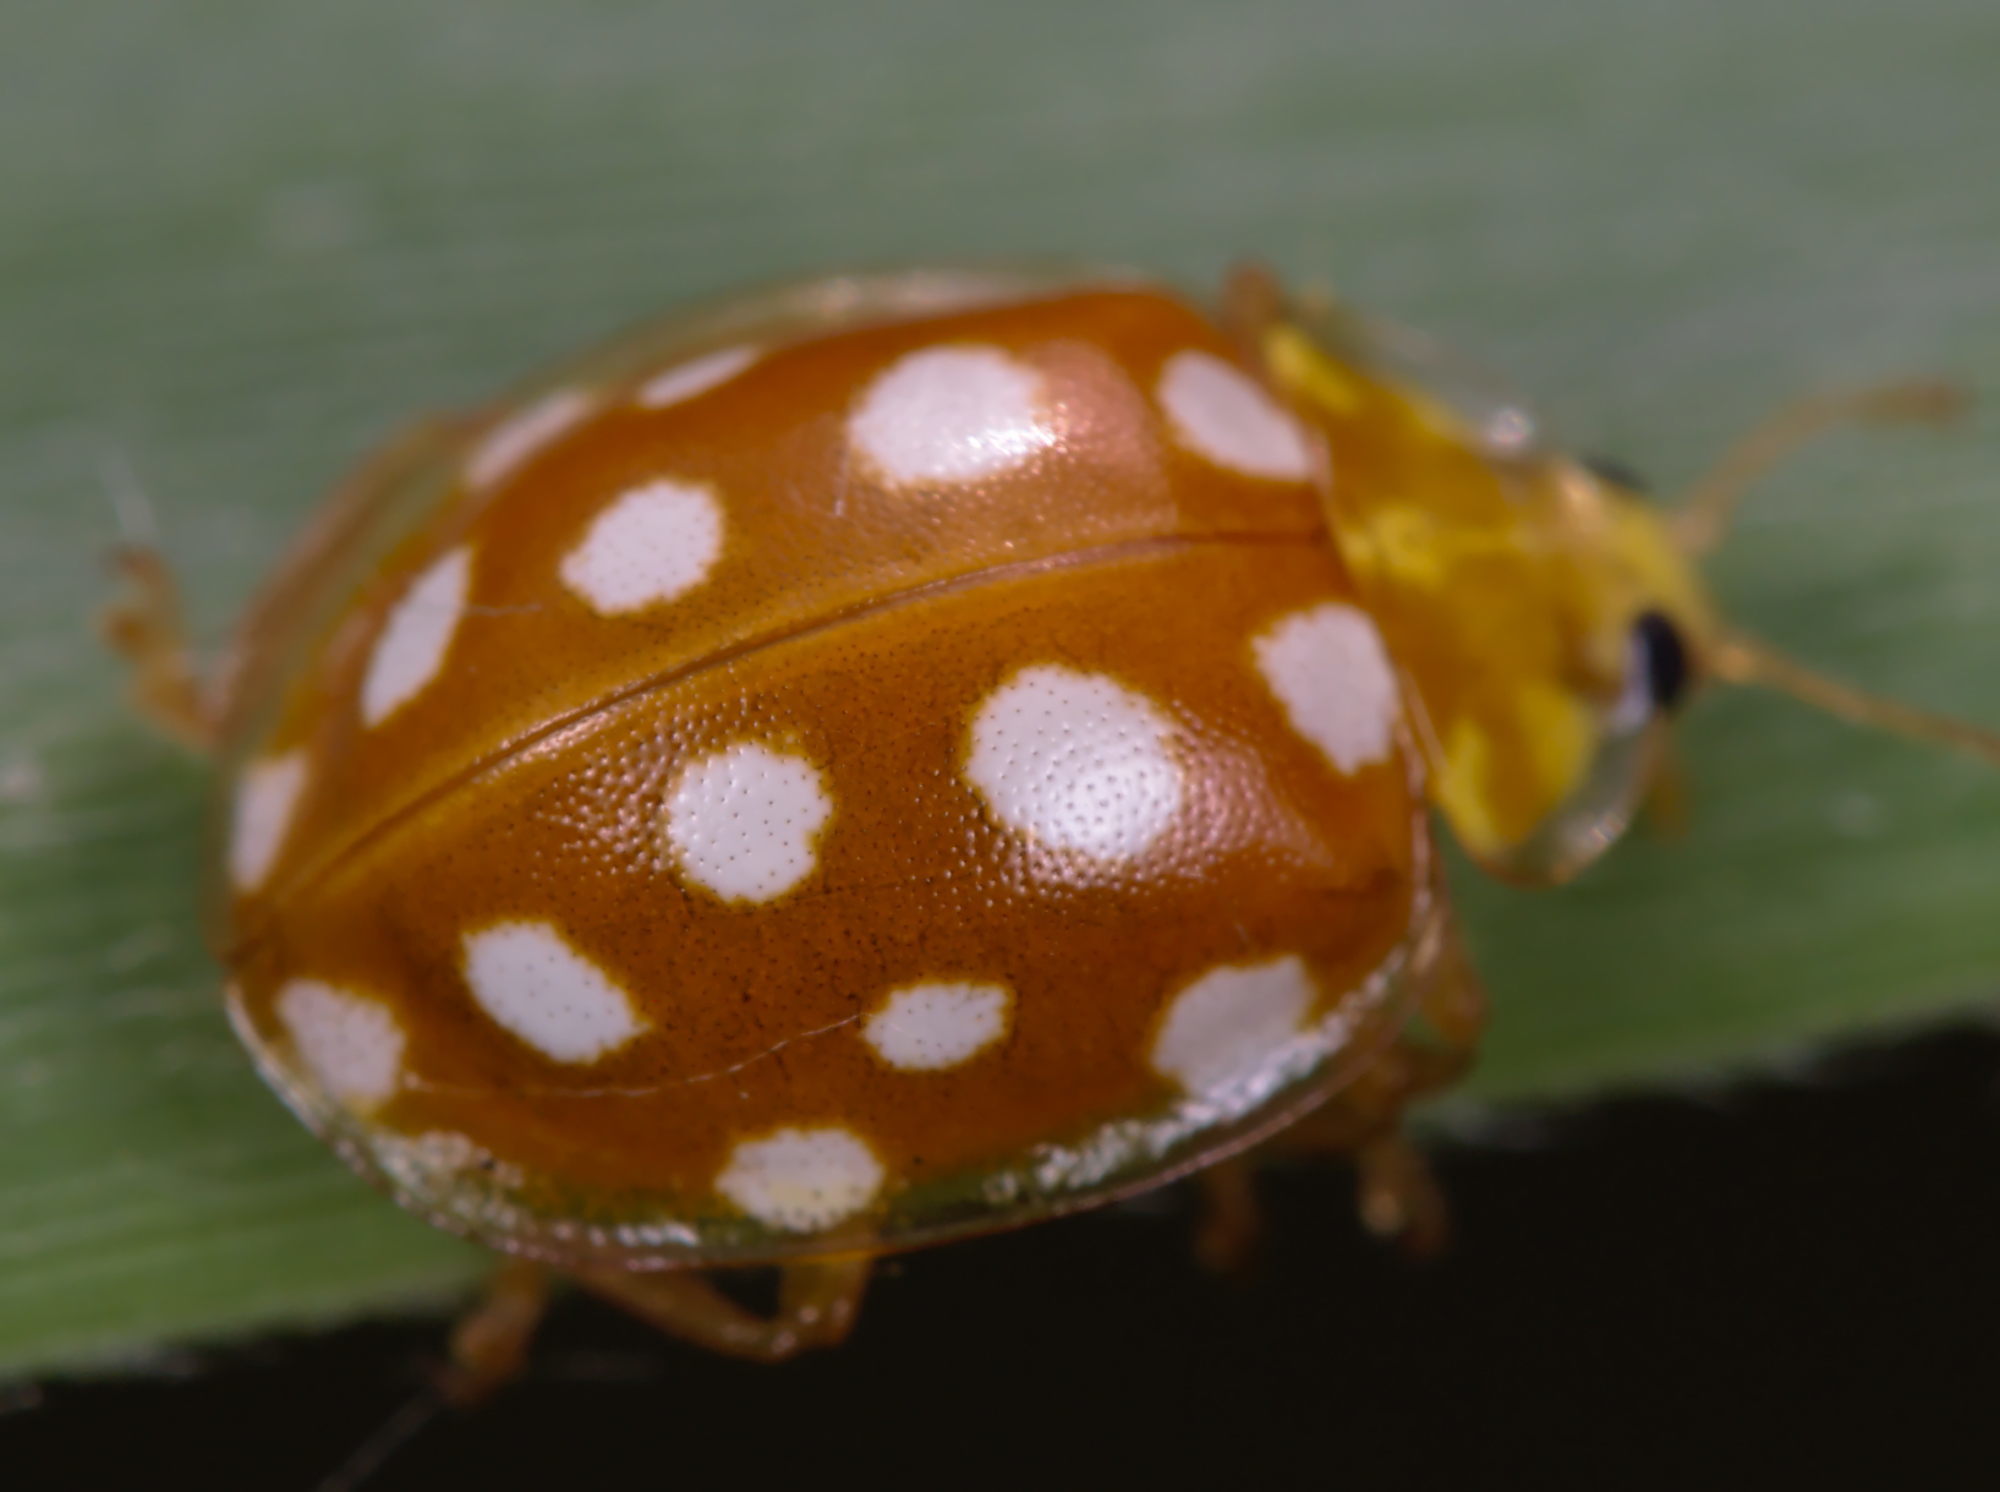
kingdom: Animalia
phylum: Arthropoda
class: Insecta
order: Coleoptera
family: Coccinellidae
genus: Halyzia
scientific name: Halyzia sedecimguttata
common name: Orange ladybird
